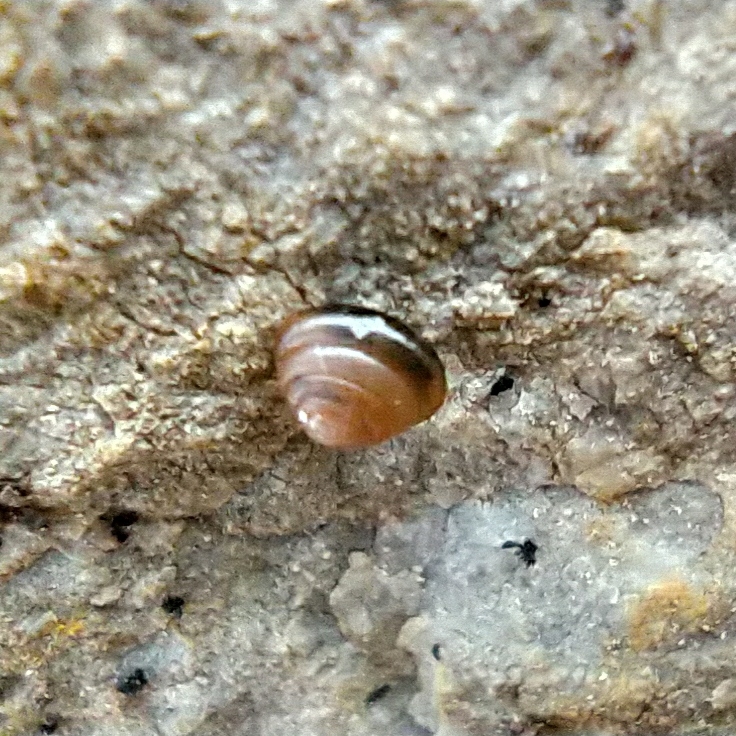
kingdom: Animalia
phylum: Mollusca
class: Gastropoda
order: Stylommatophora
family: Euconulidae
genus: Euconulus
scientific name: Euconulus fulvus
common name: Tawny glass snail
